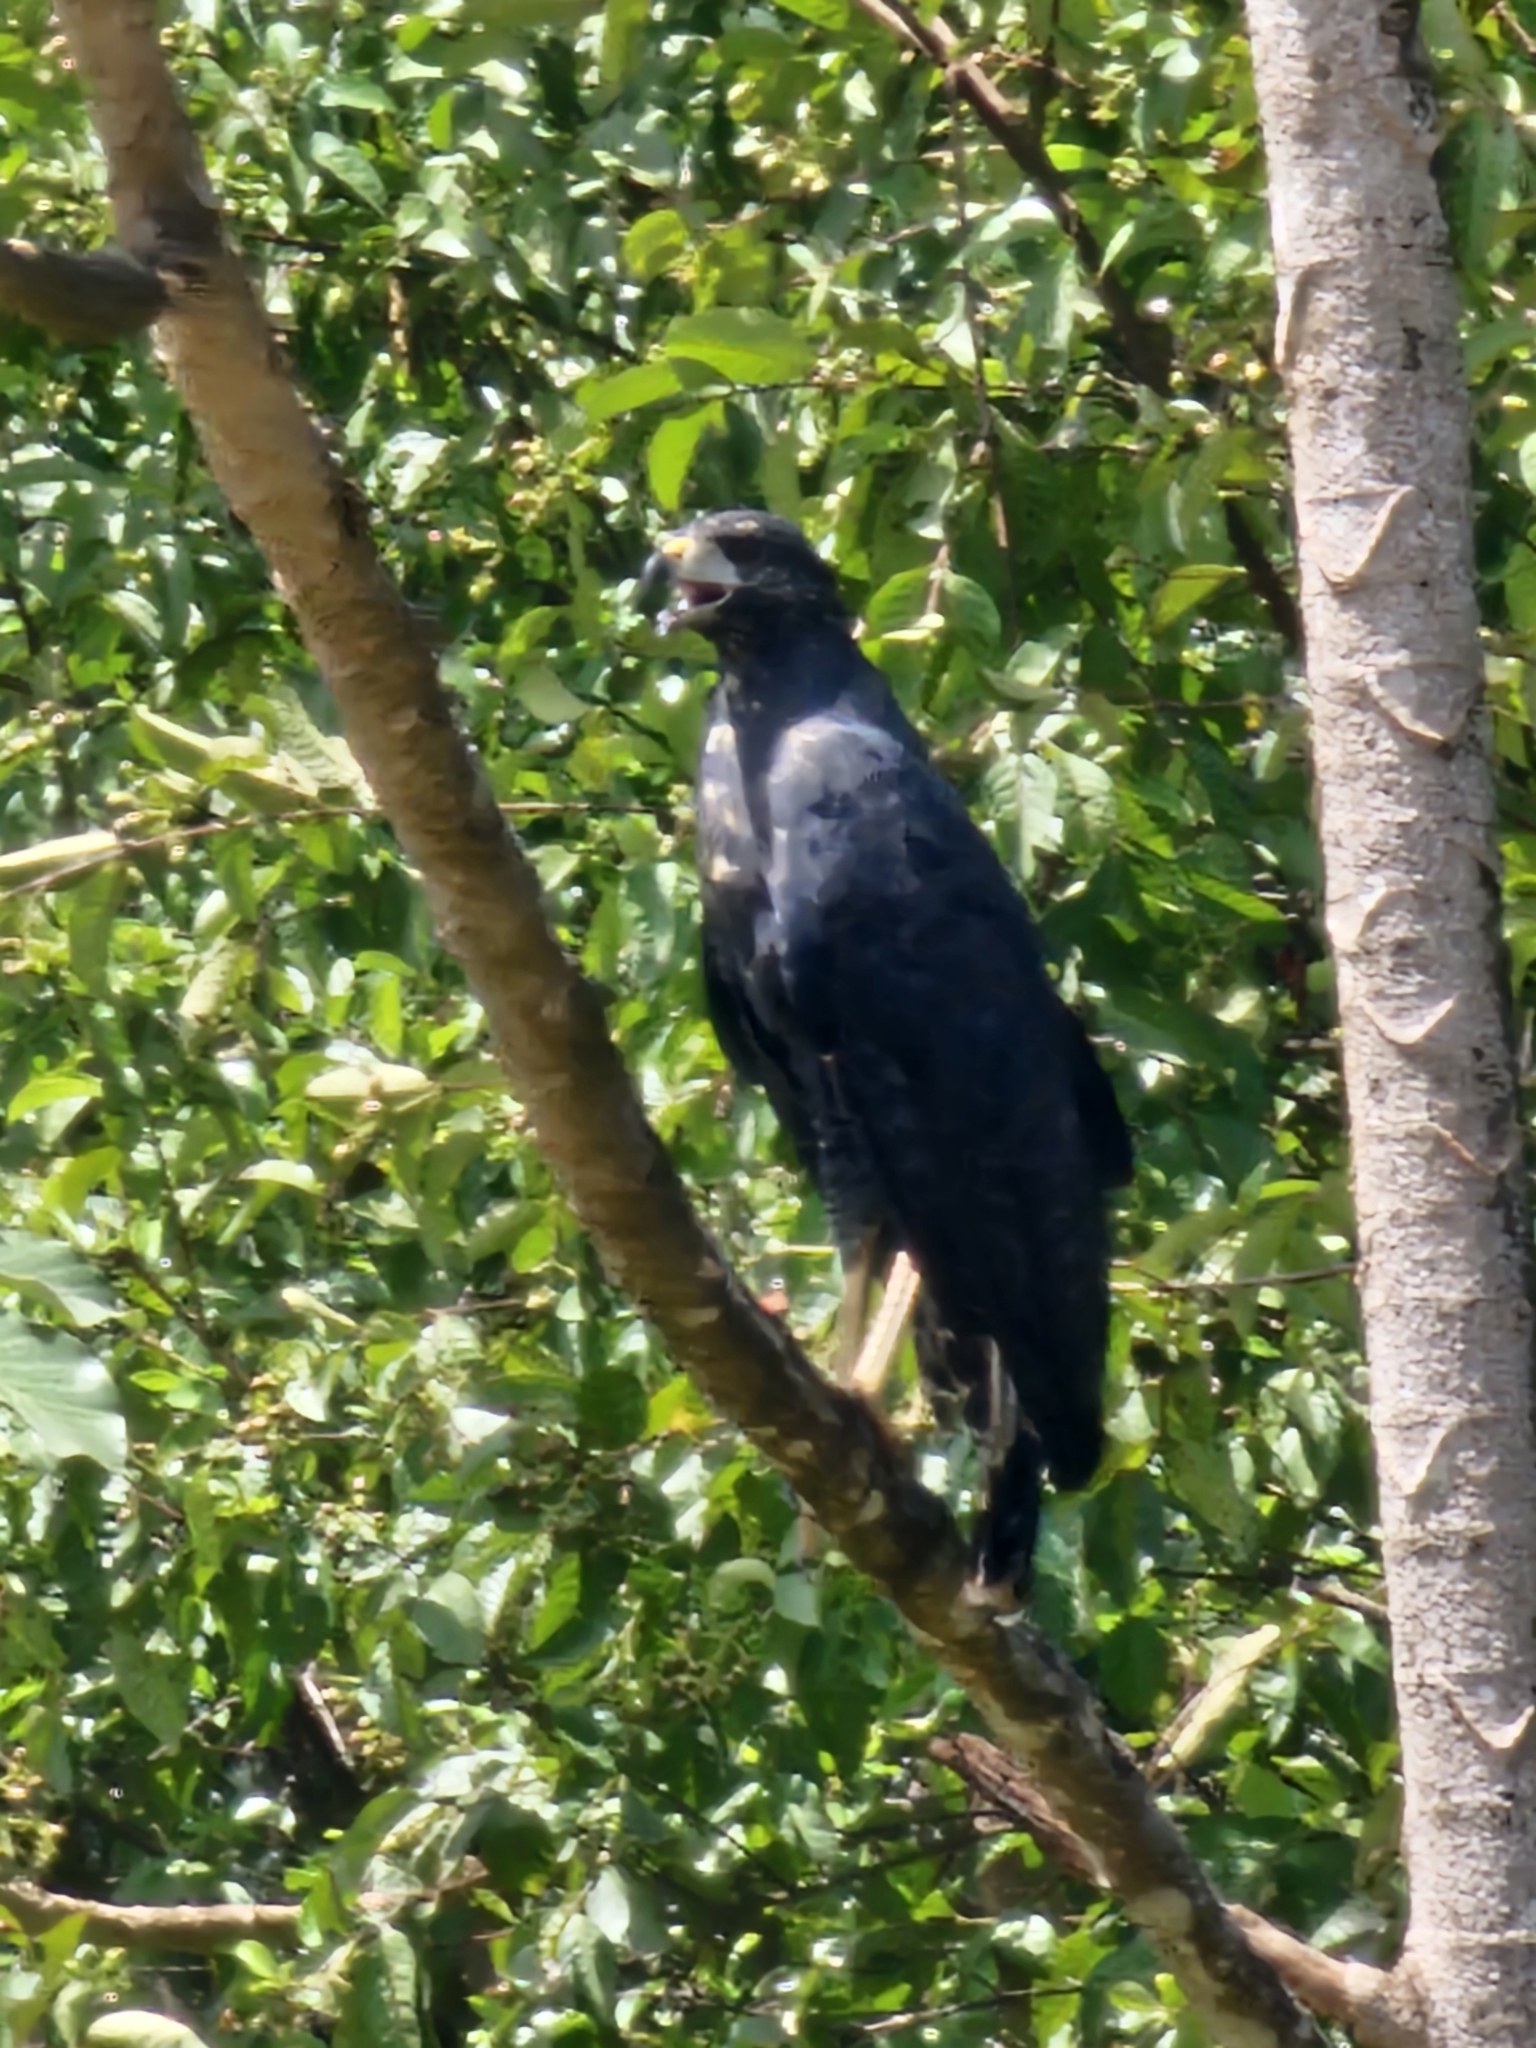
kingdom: Animalia
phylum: Chordata
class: Aves
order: Accipitriformes
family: Accipitridae
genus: Buteogallus
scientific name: Buteogallus urubitinga
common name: Great black hawk
